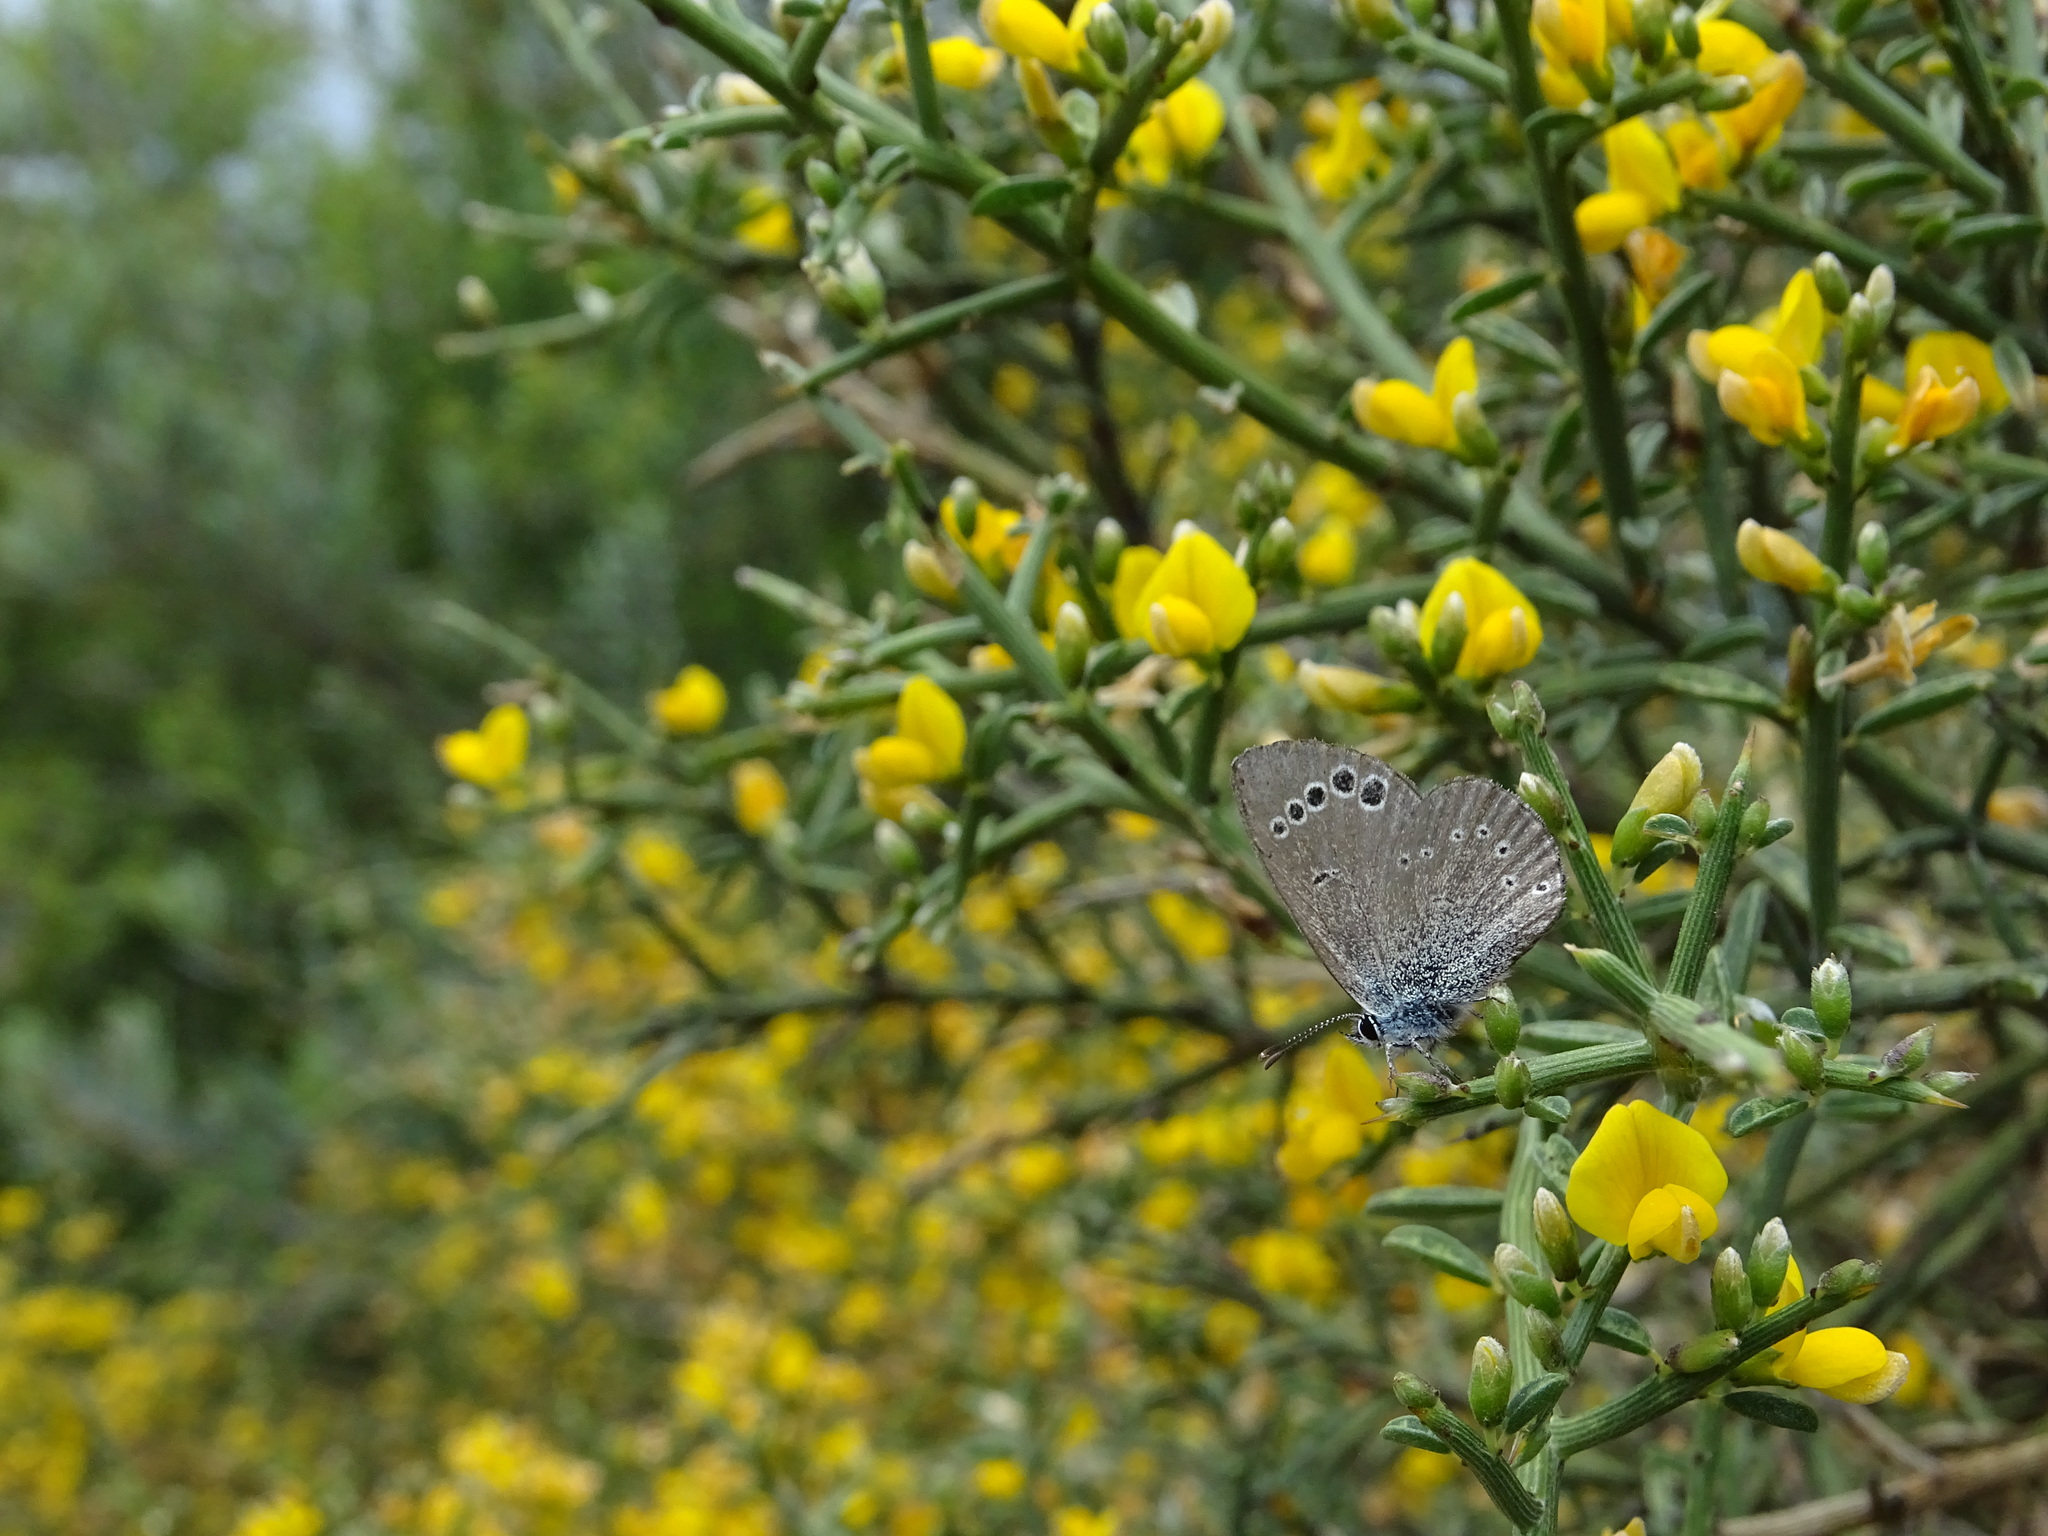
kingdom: Animalia
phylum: Arthropoda
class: Insecta
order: Lepidoptera
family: Lycaenidae
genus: Glaucopsyche
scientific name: Glaucopsyche paphos
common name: Paphos blue
